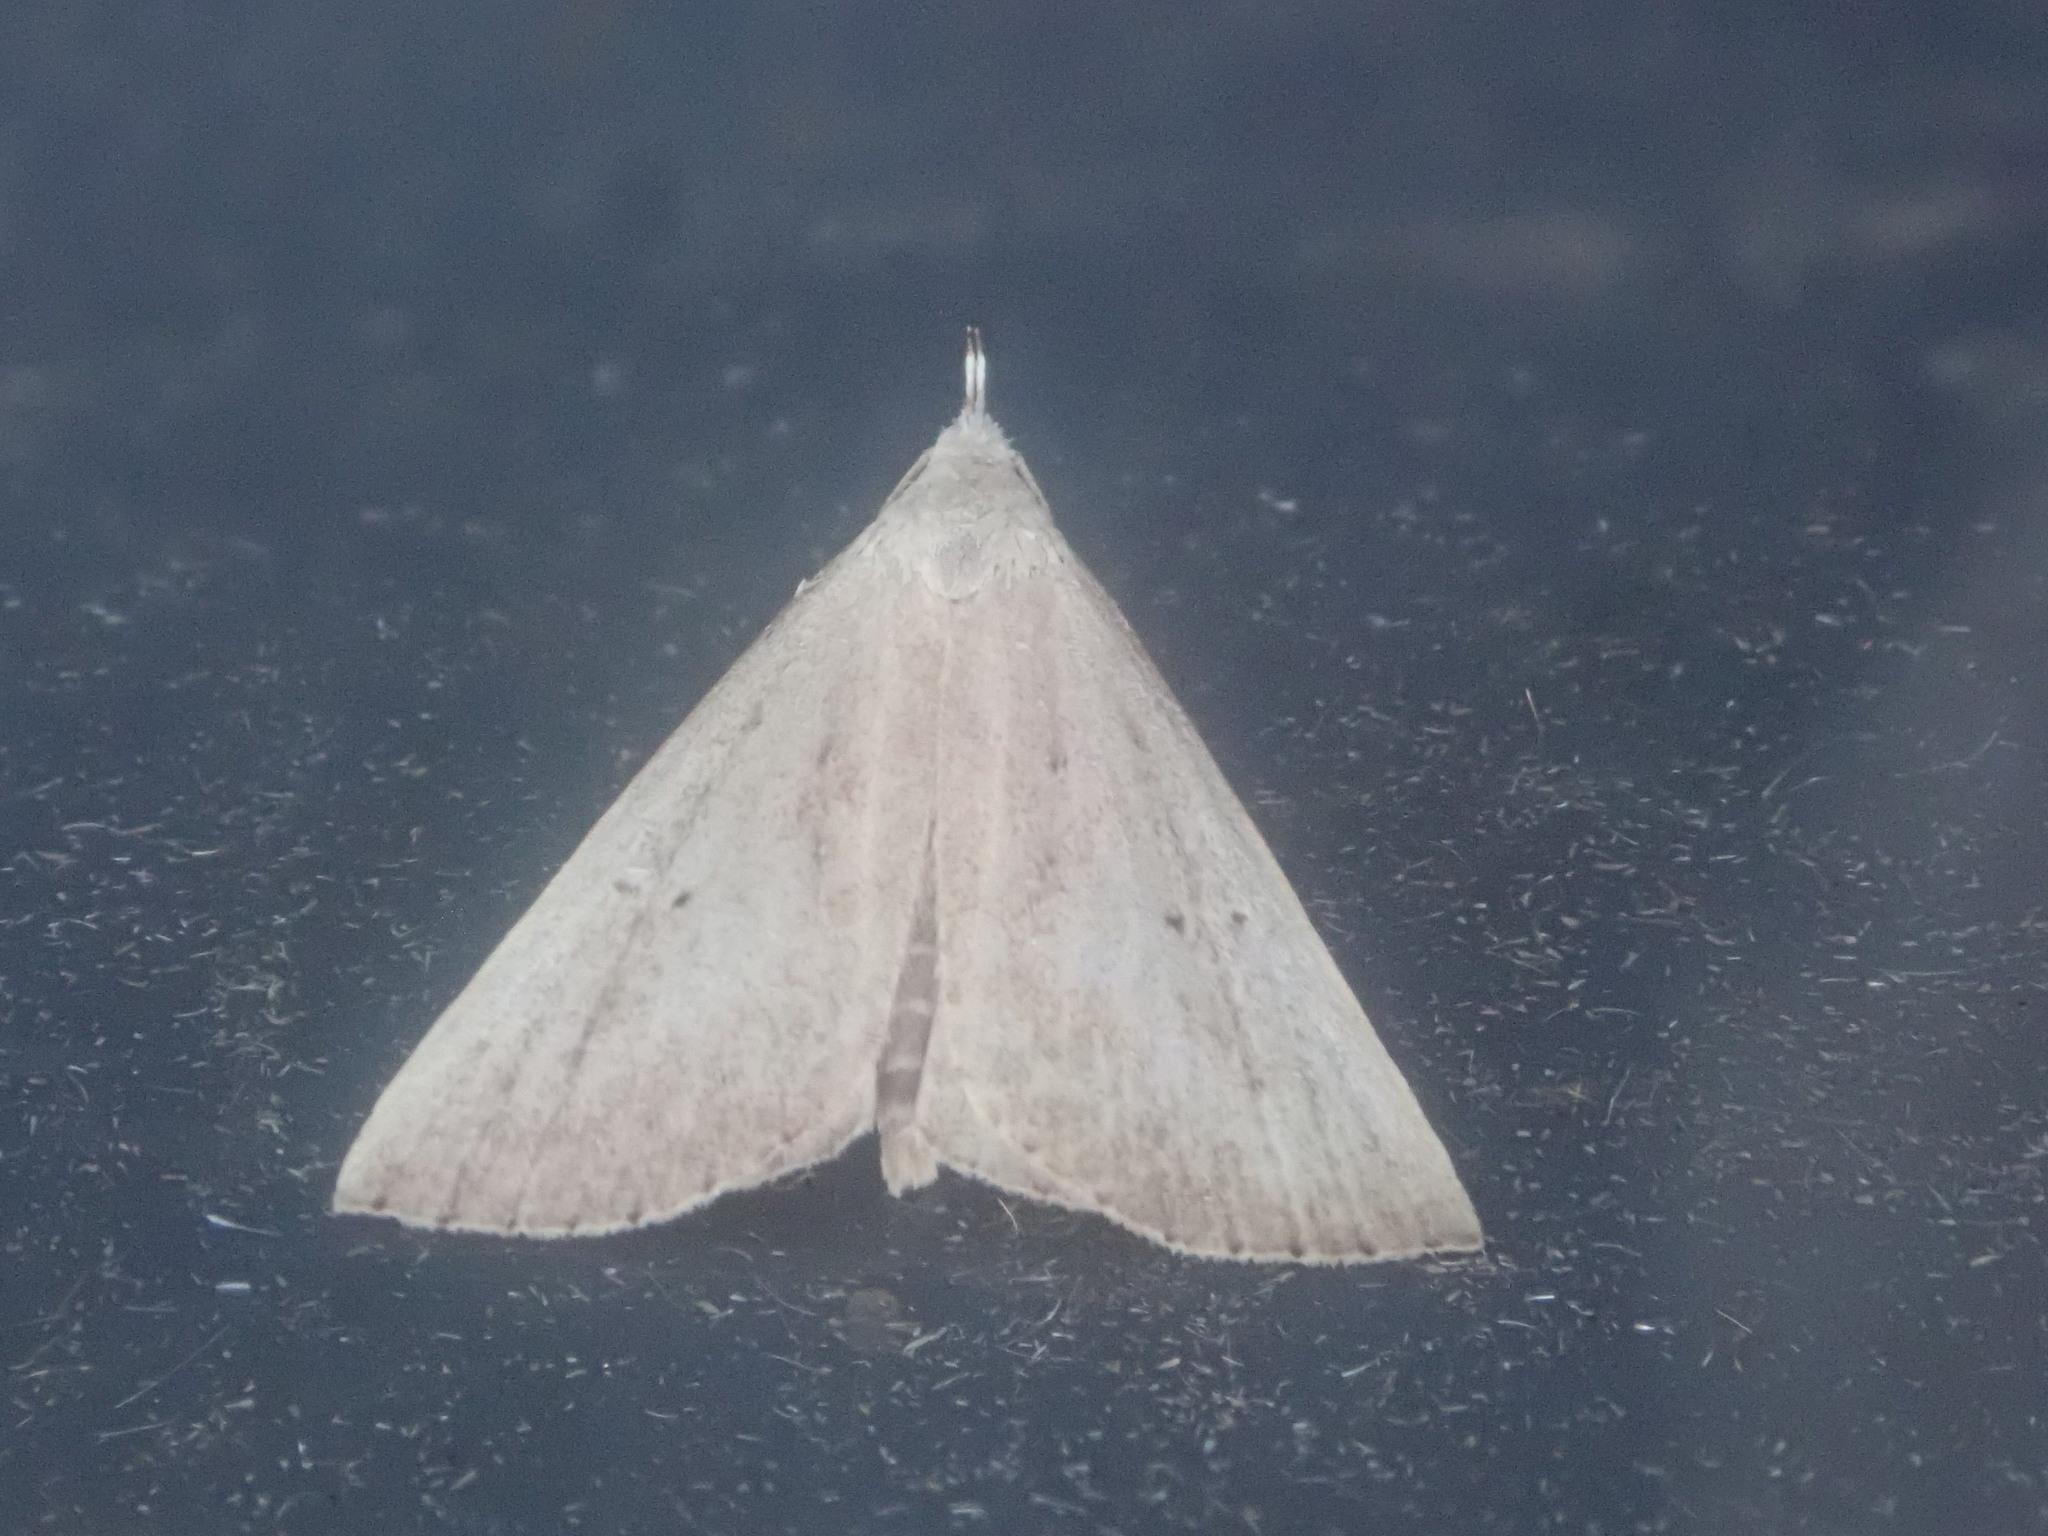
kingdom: Animalia
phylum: Arthropoda
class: Insecta
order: Lepidoptera
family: Erebidae
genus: Macrochilo
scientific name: Macrochilo louisiana
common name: Louisiana macrochilo
